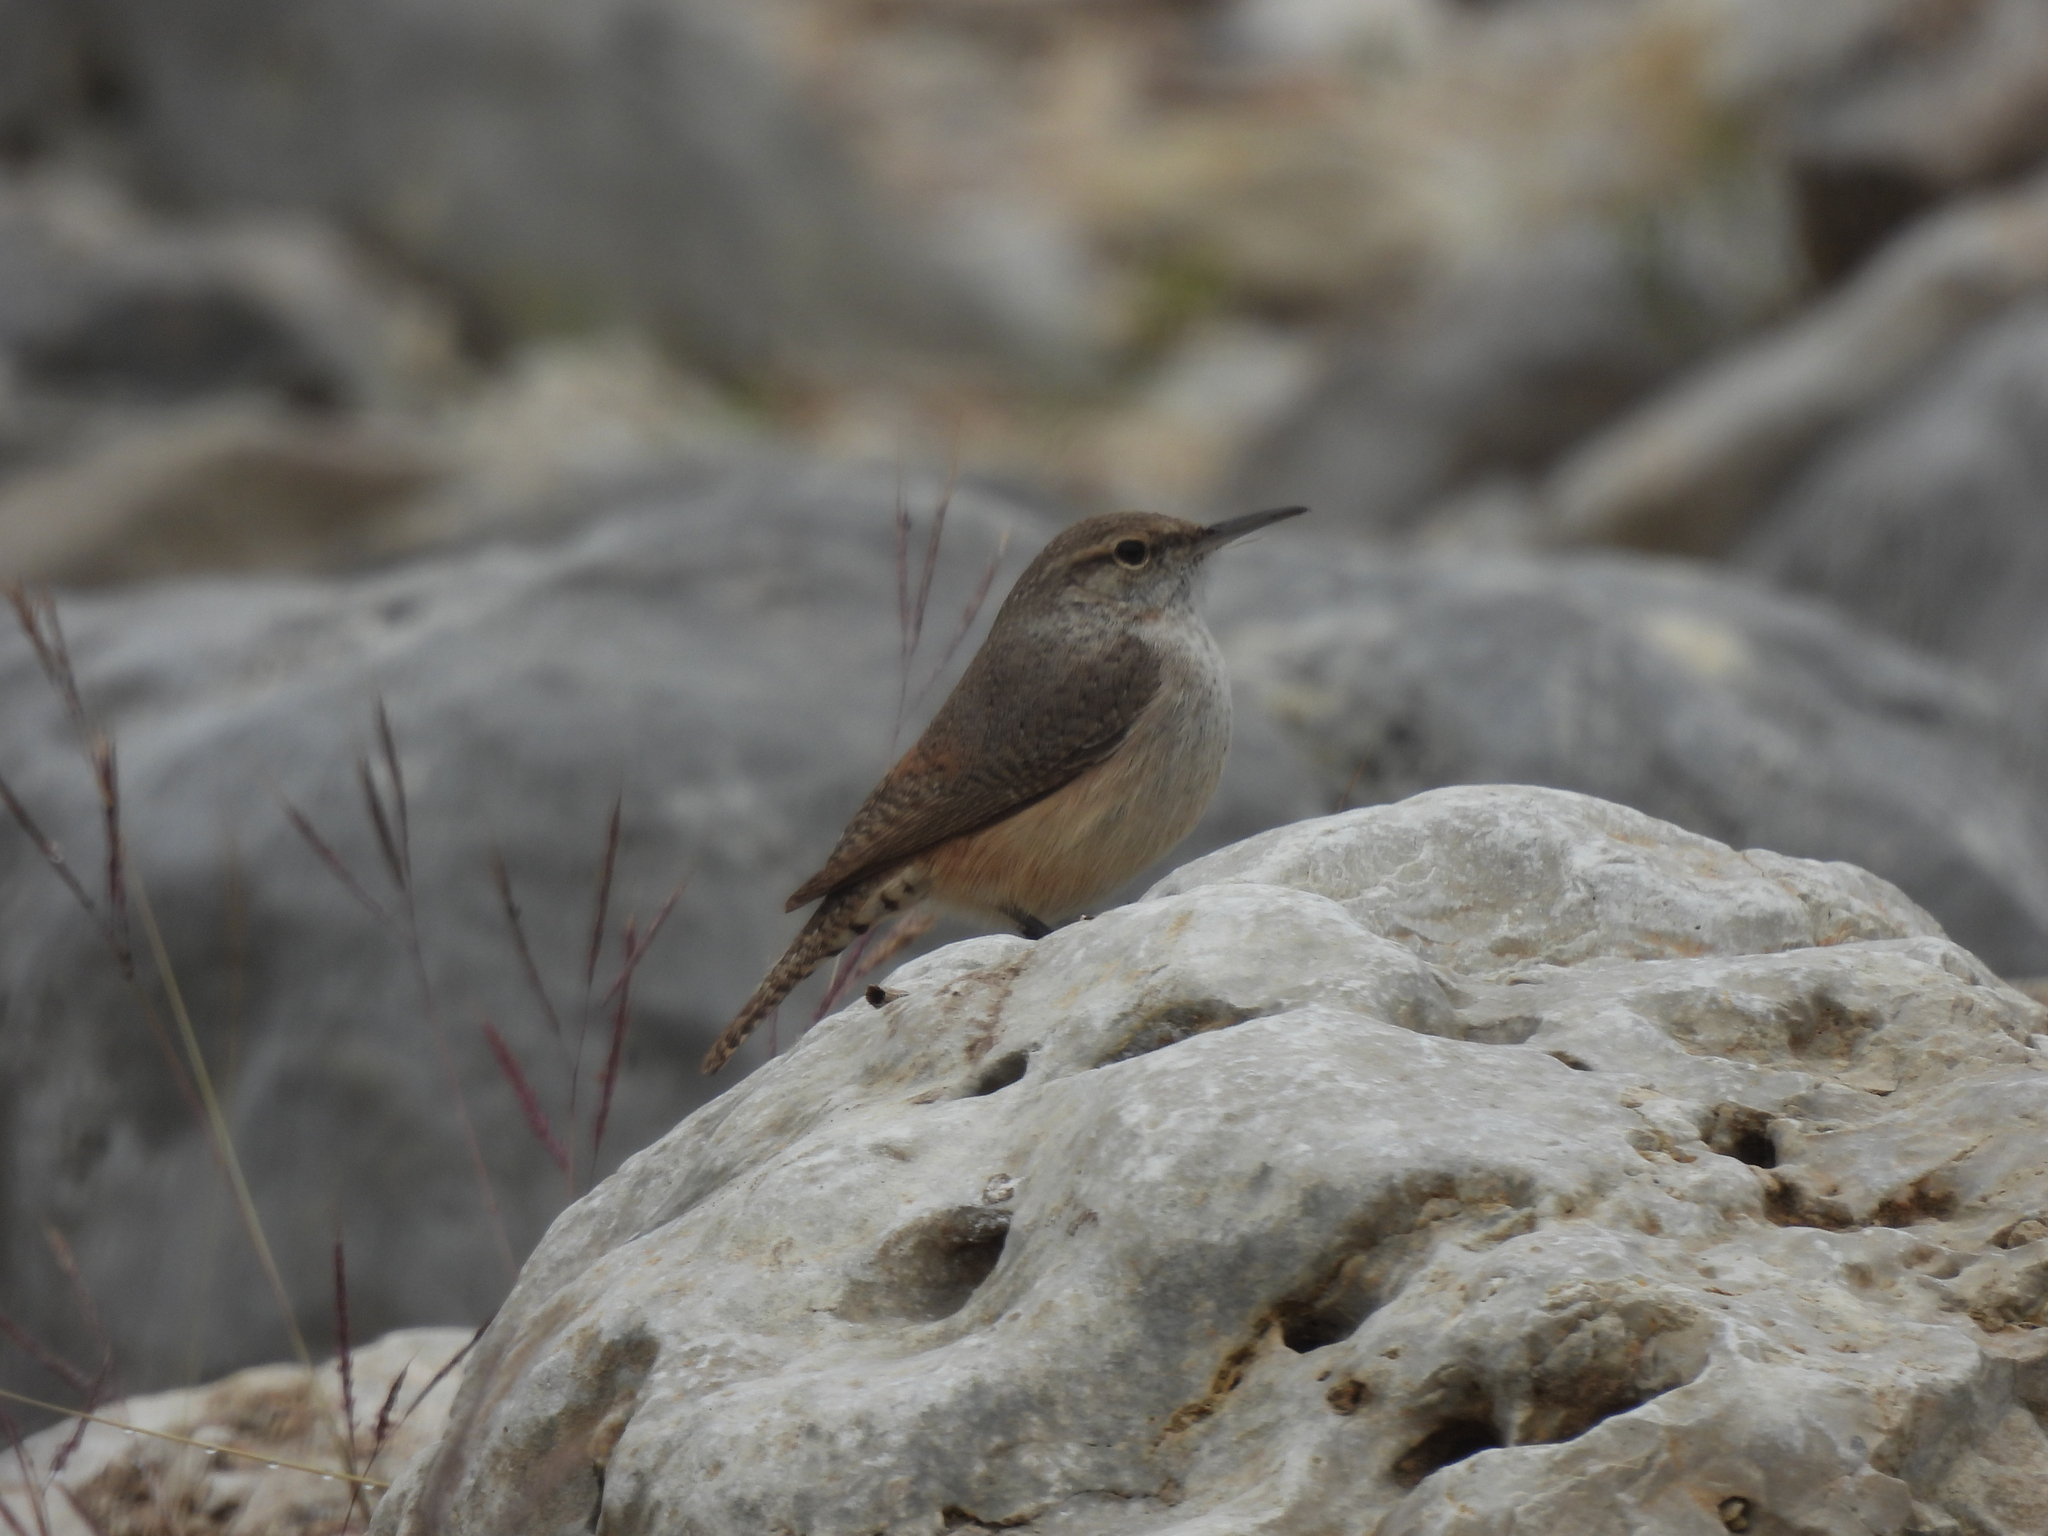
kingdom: Animalia
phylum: Chordata
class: Aves
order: Passeriformes
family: Troglodytidae
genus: Salpinctes
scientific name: Salpinctes obsoletus
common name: Rock wren
